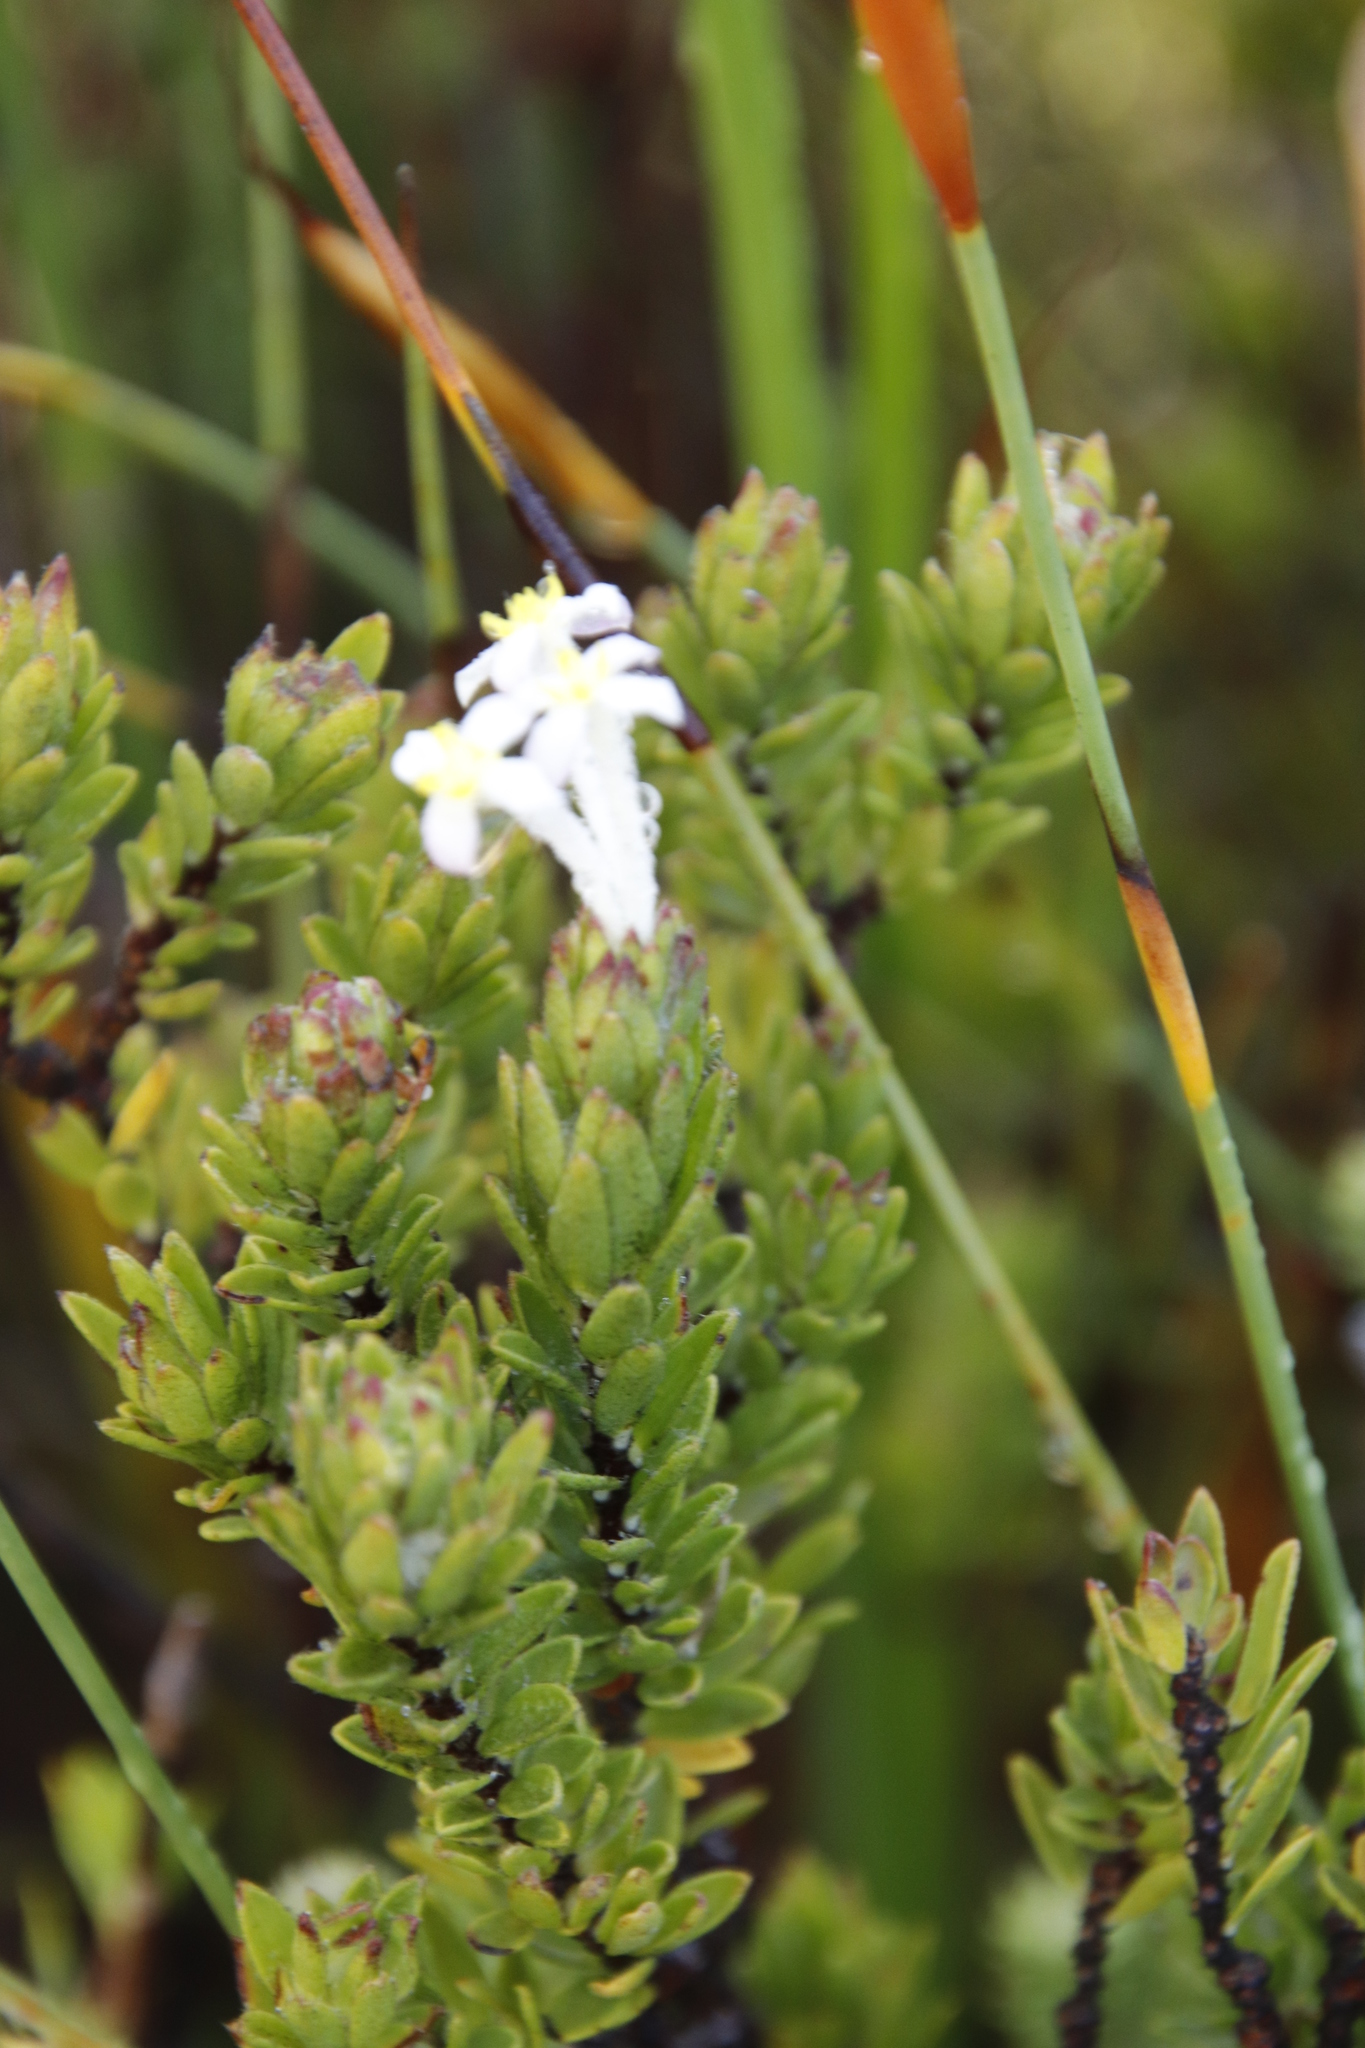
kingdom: Plantae
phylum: Tracheophyta
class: Magnoliopsida
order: Malvales
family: Thymelaeaceae
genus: Gnidia
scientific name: Gnidia tomentosa
